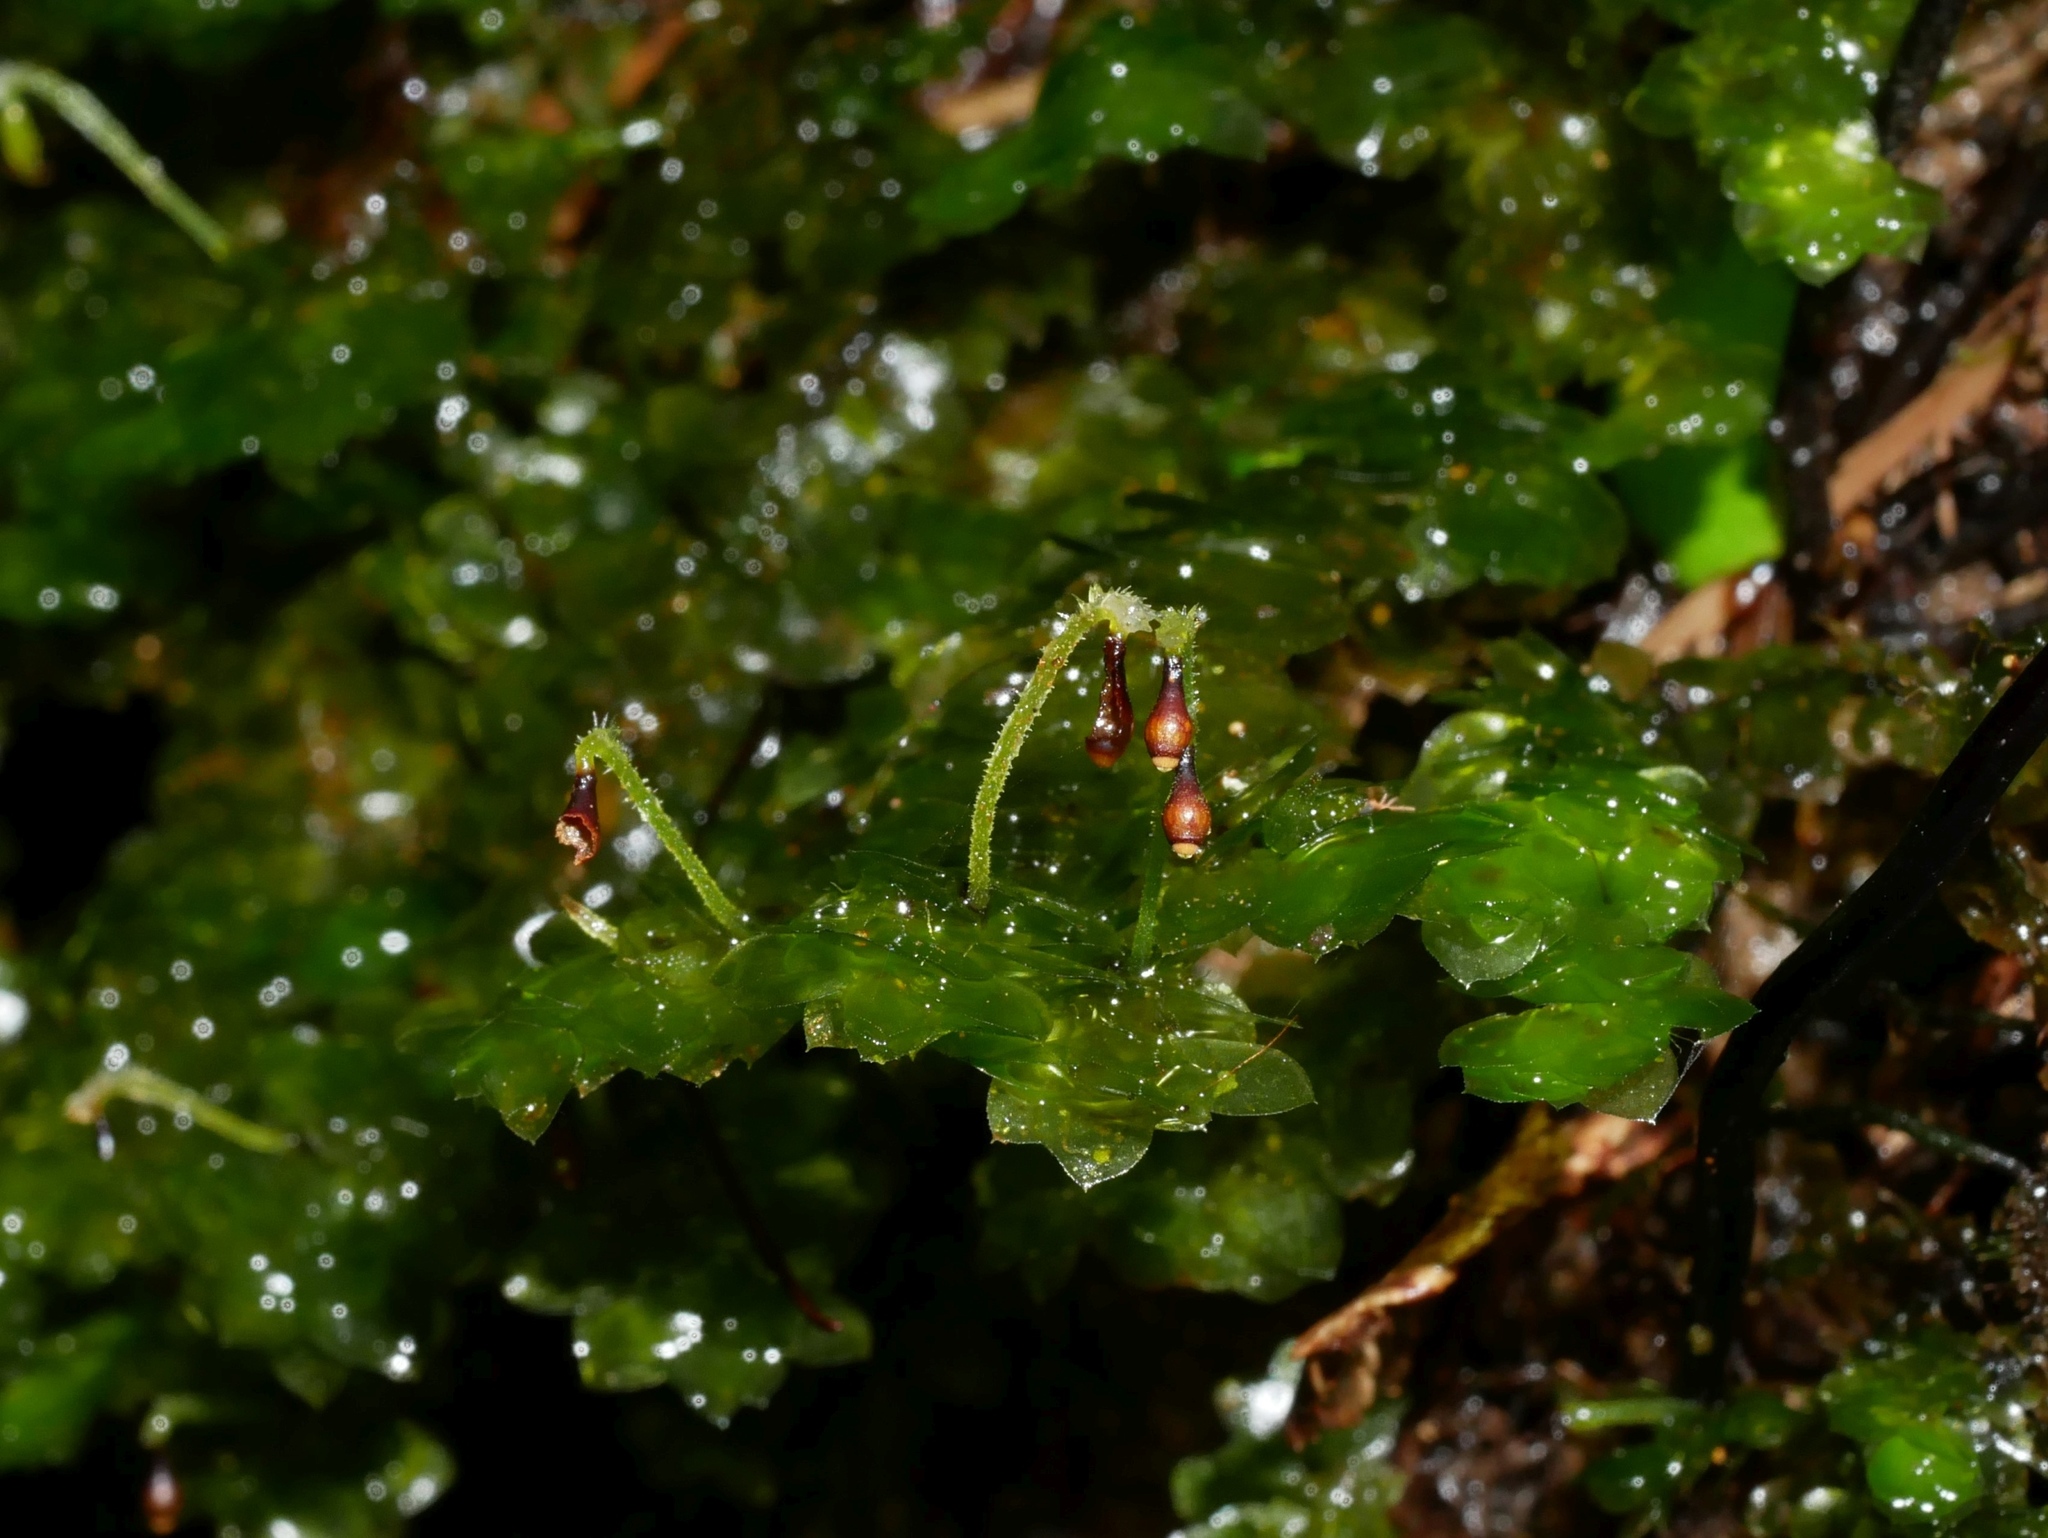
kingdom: Plantae
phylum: Bryophyta
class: Bryopsida
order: Hookeriales
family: Daltoniaceae
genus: Calyptrochaeta
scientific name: Calyptrochaeta cristata
